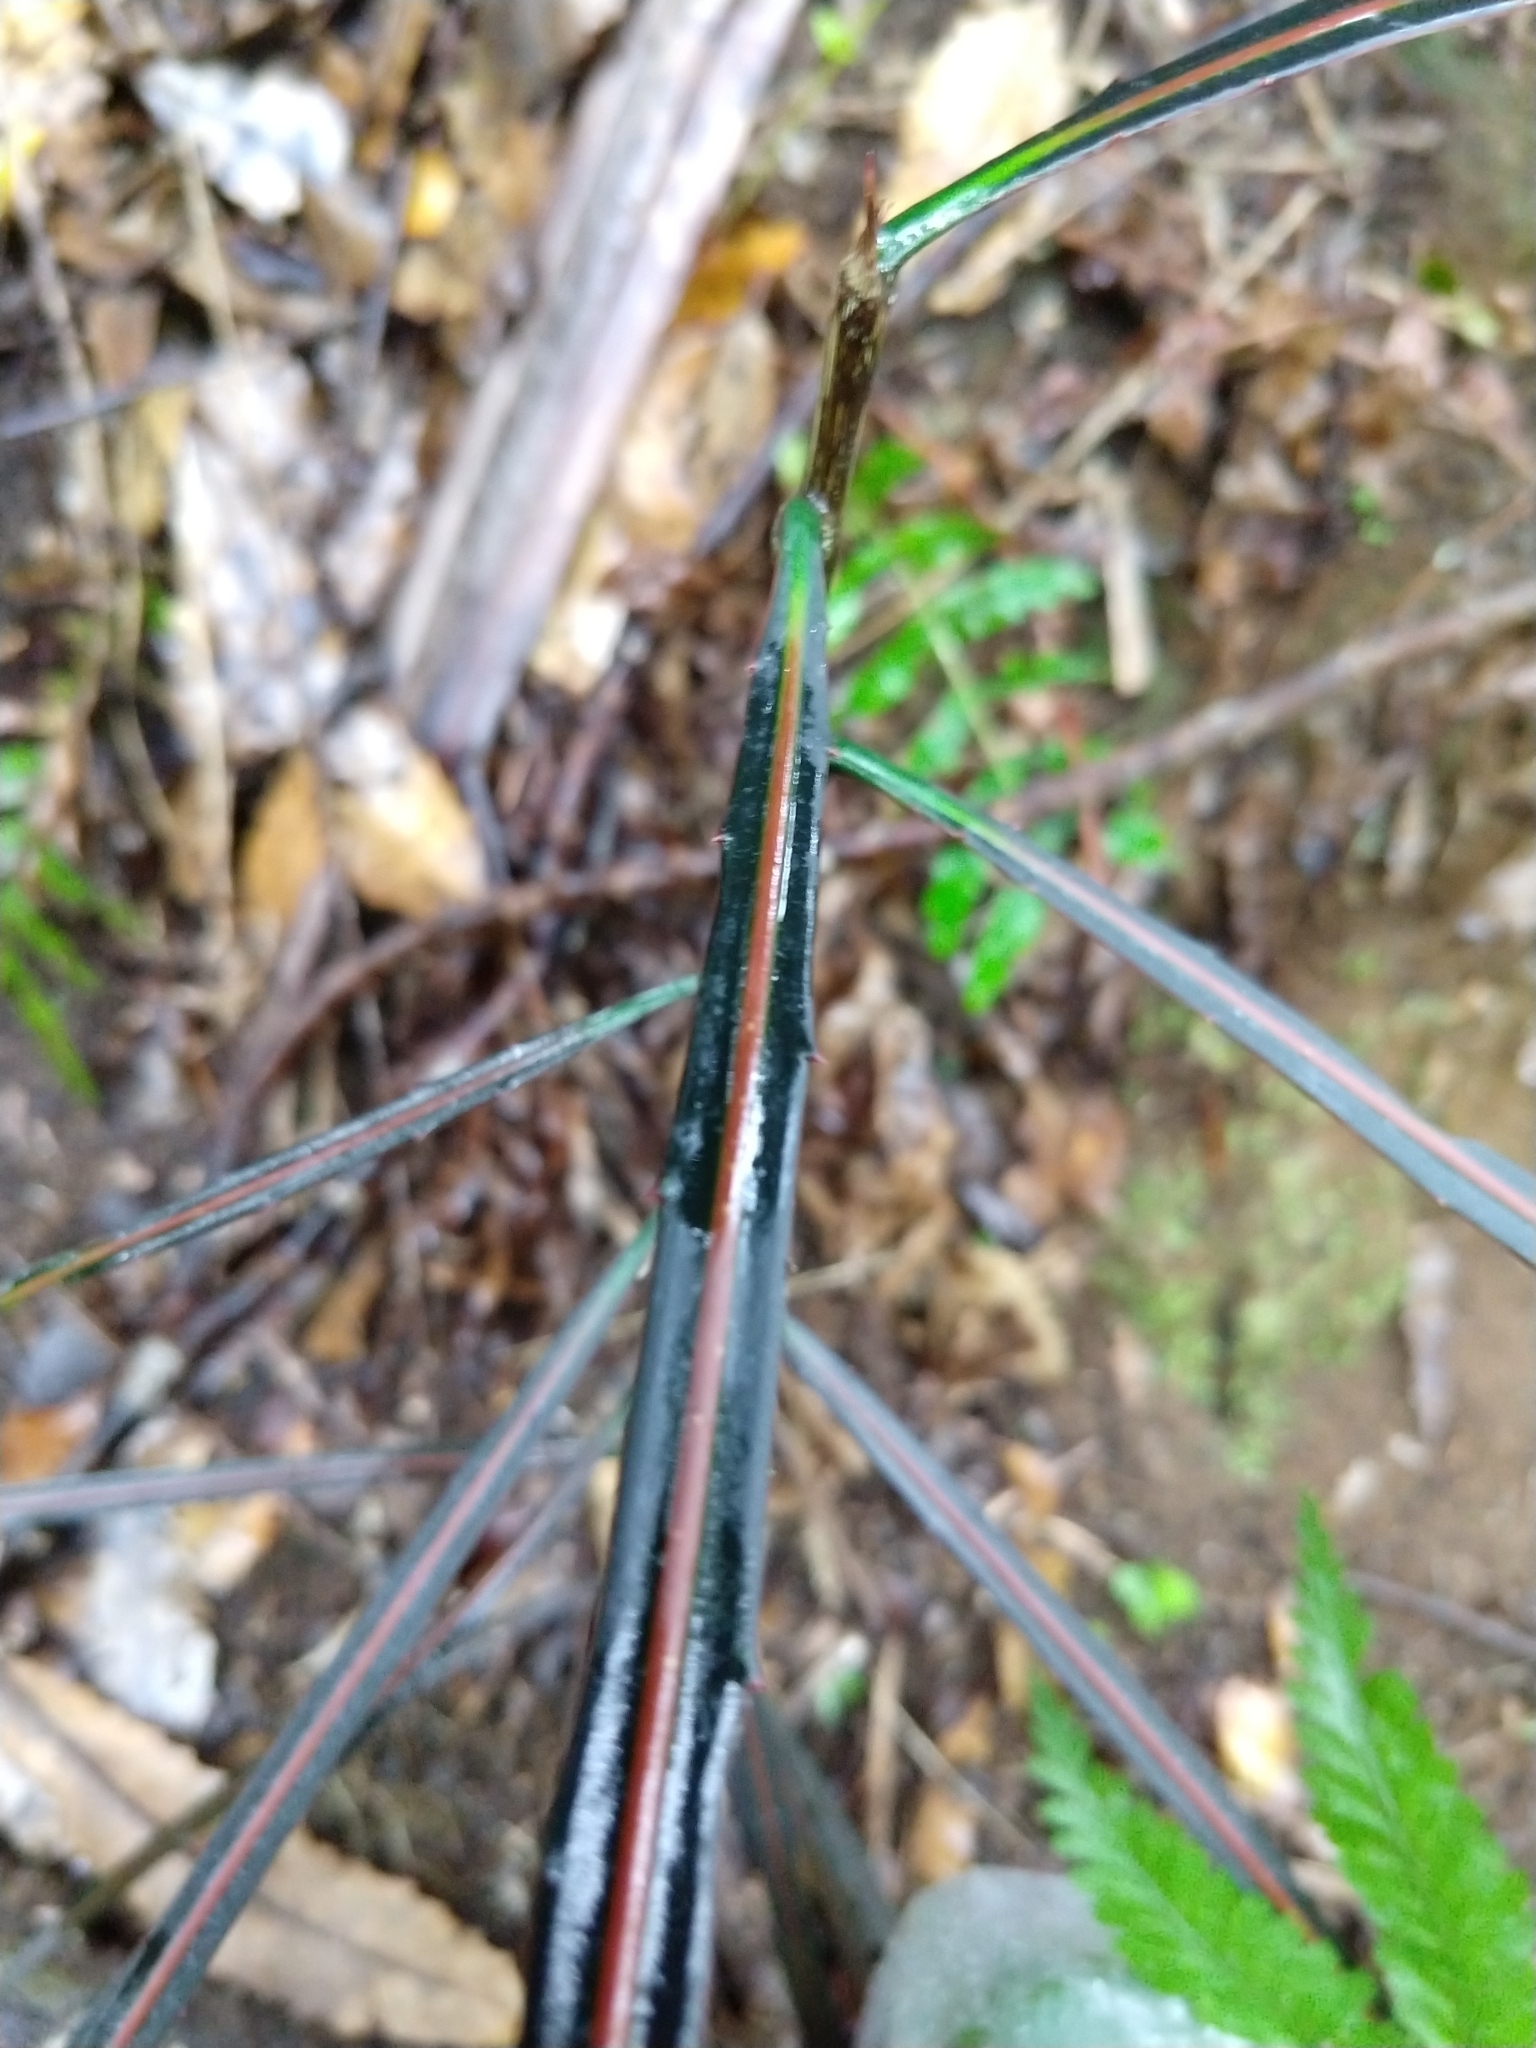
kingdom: Plantae
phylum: Tracheophyta
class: Magnoliopsida
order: Apiales
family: Araliaceae
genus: Pseudopanax
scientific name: Pseudopanax crassifolius
